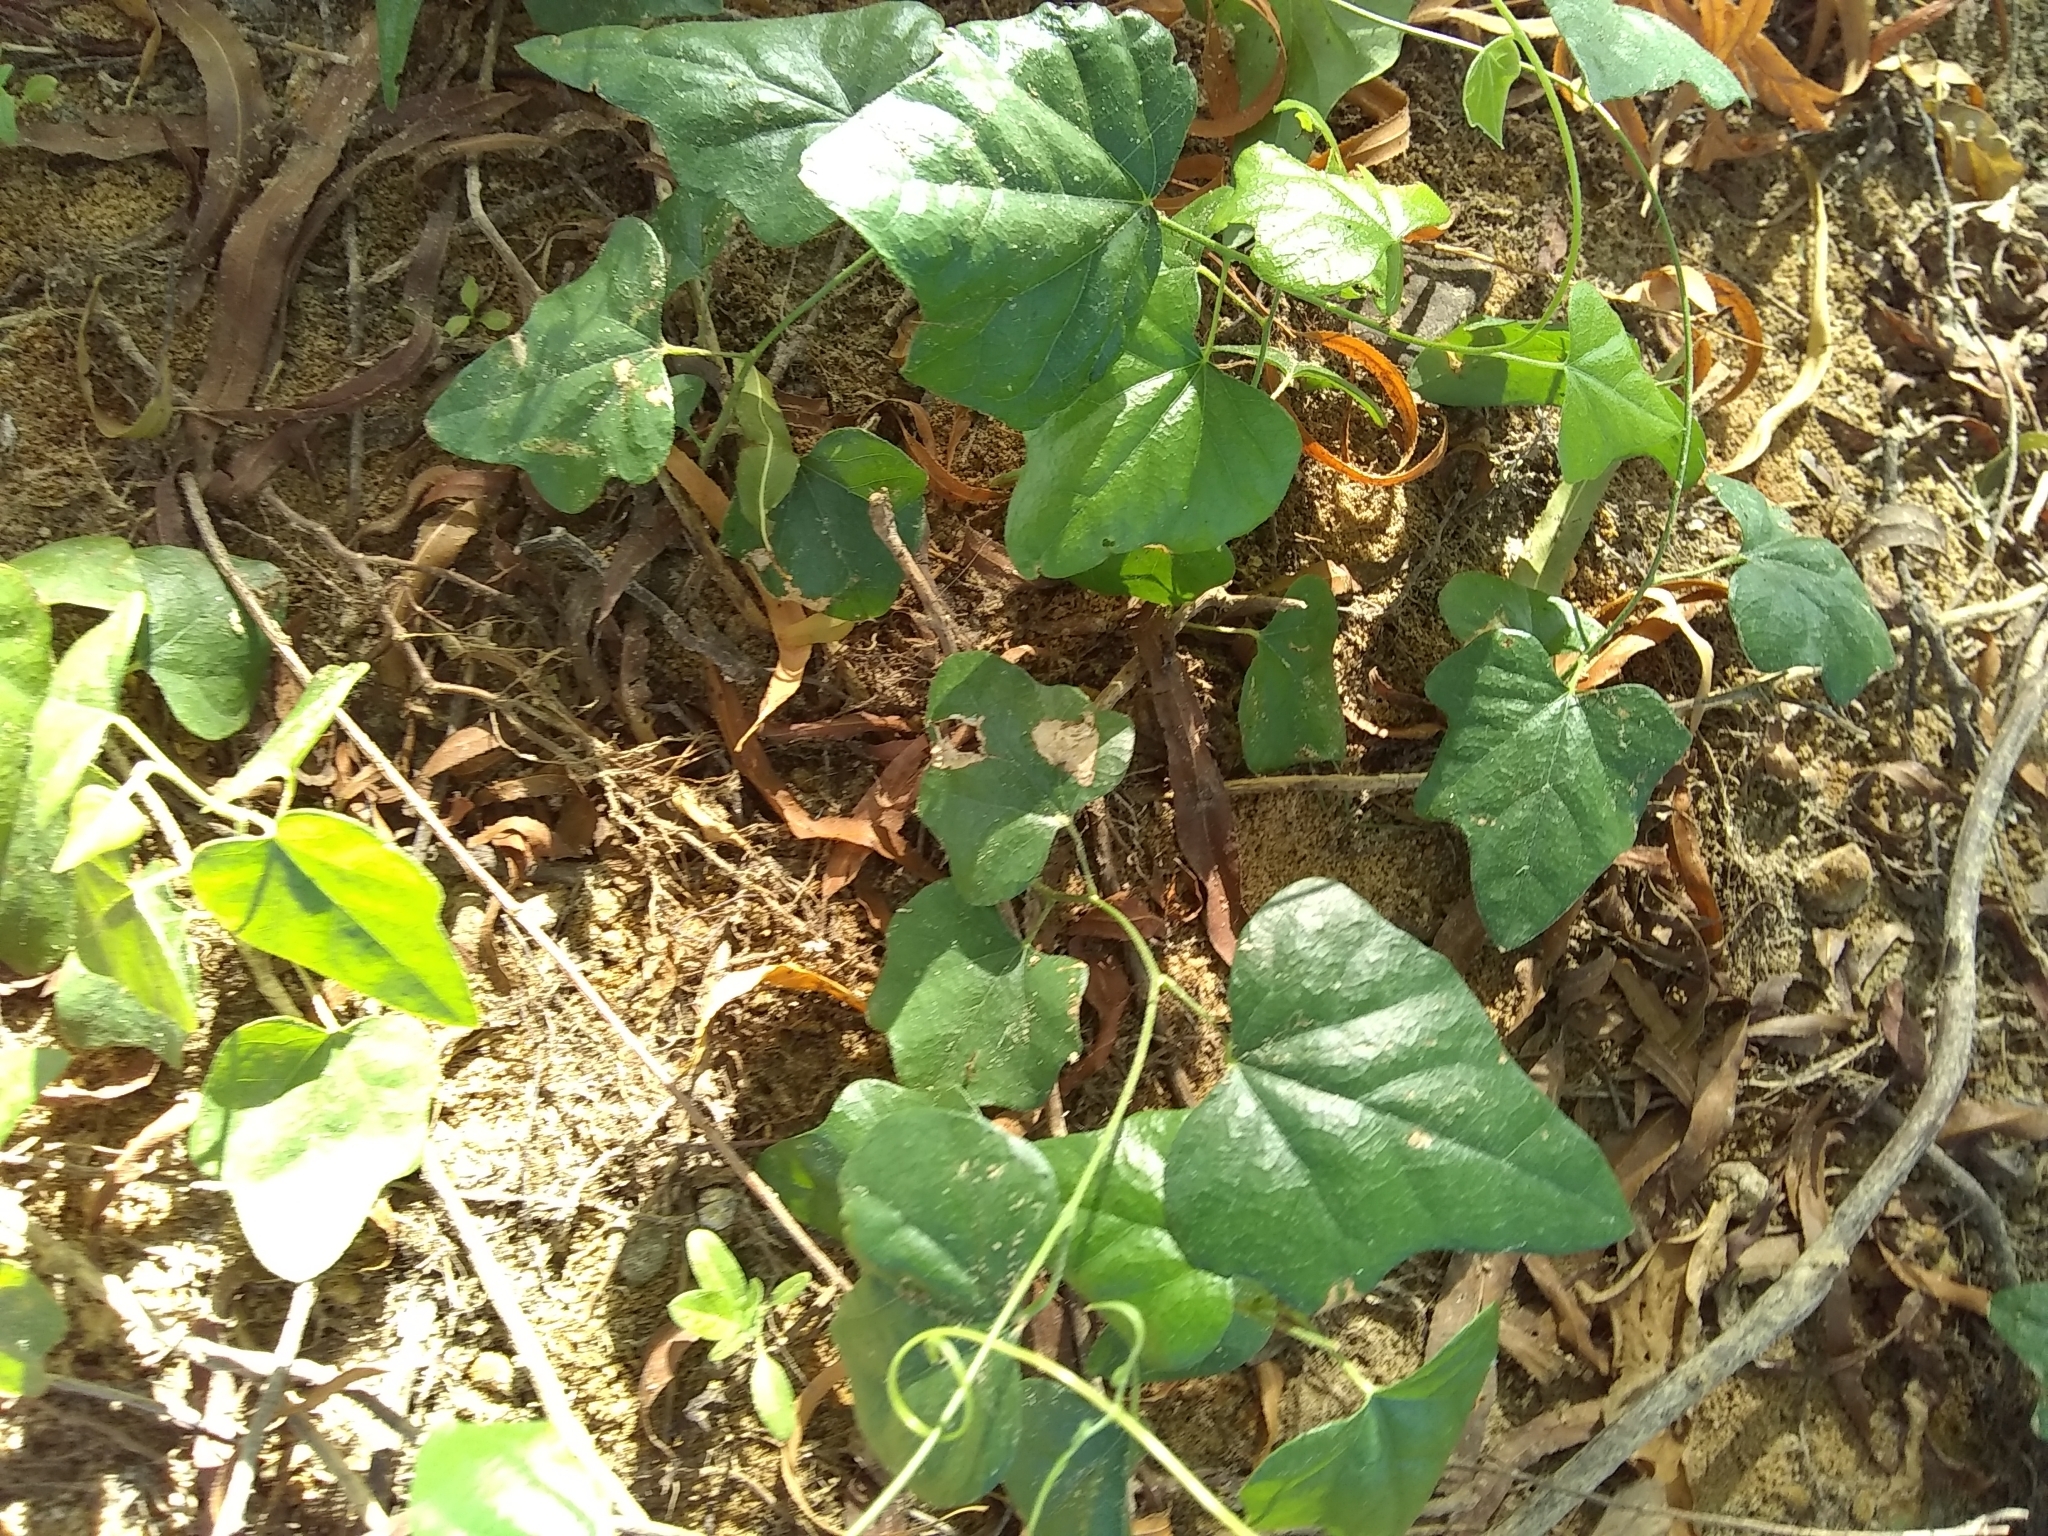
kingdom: Plantae
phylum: Tracheophyta
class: Magnoliopsida
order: Ranunculales
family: Menispermaceae
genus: Cocculus
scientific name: Cocculus carolinus
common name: Carolina moonseed
